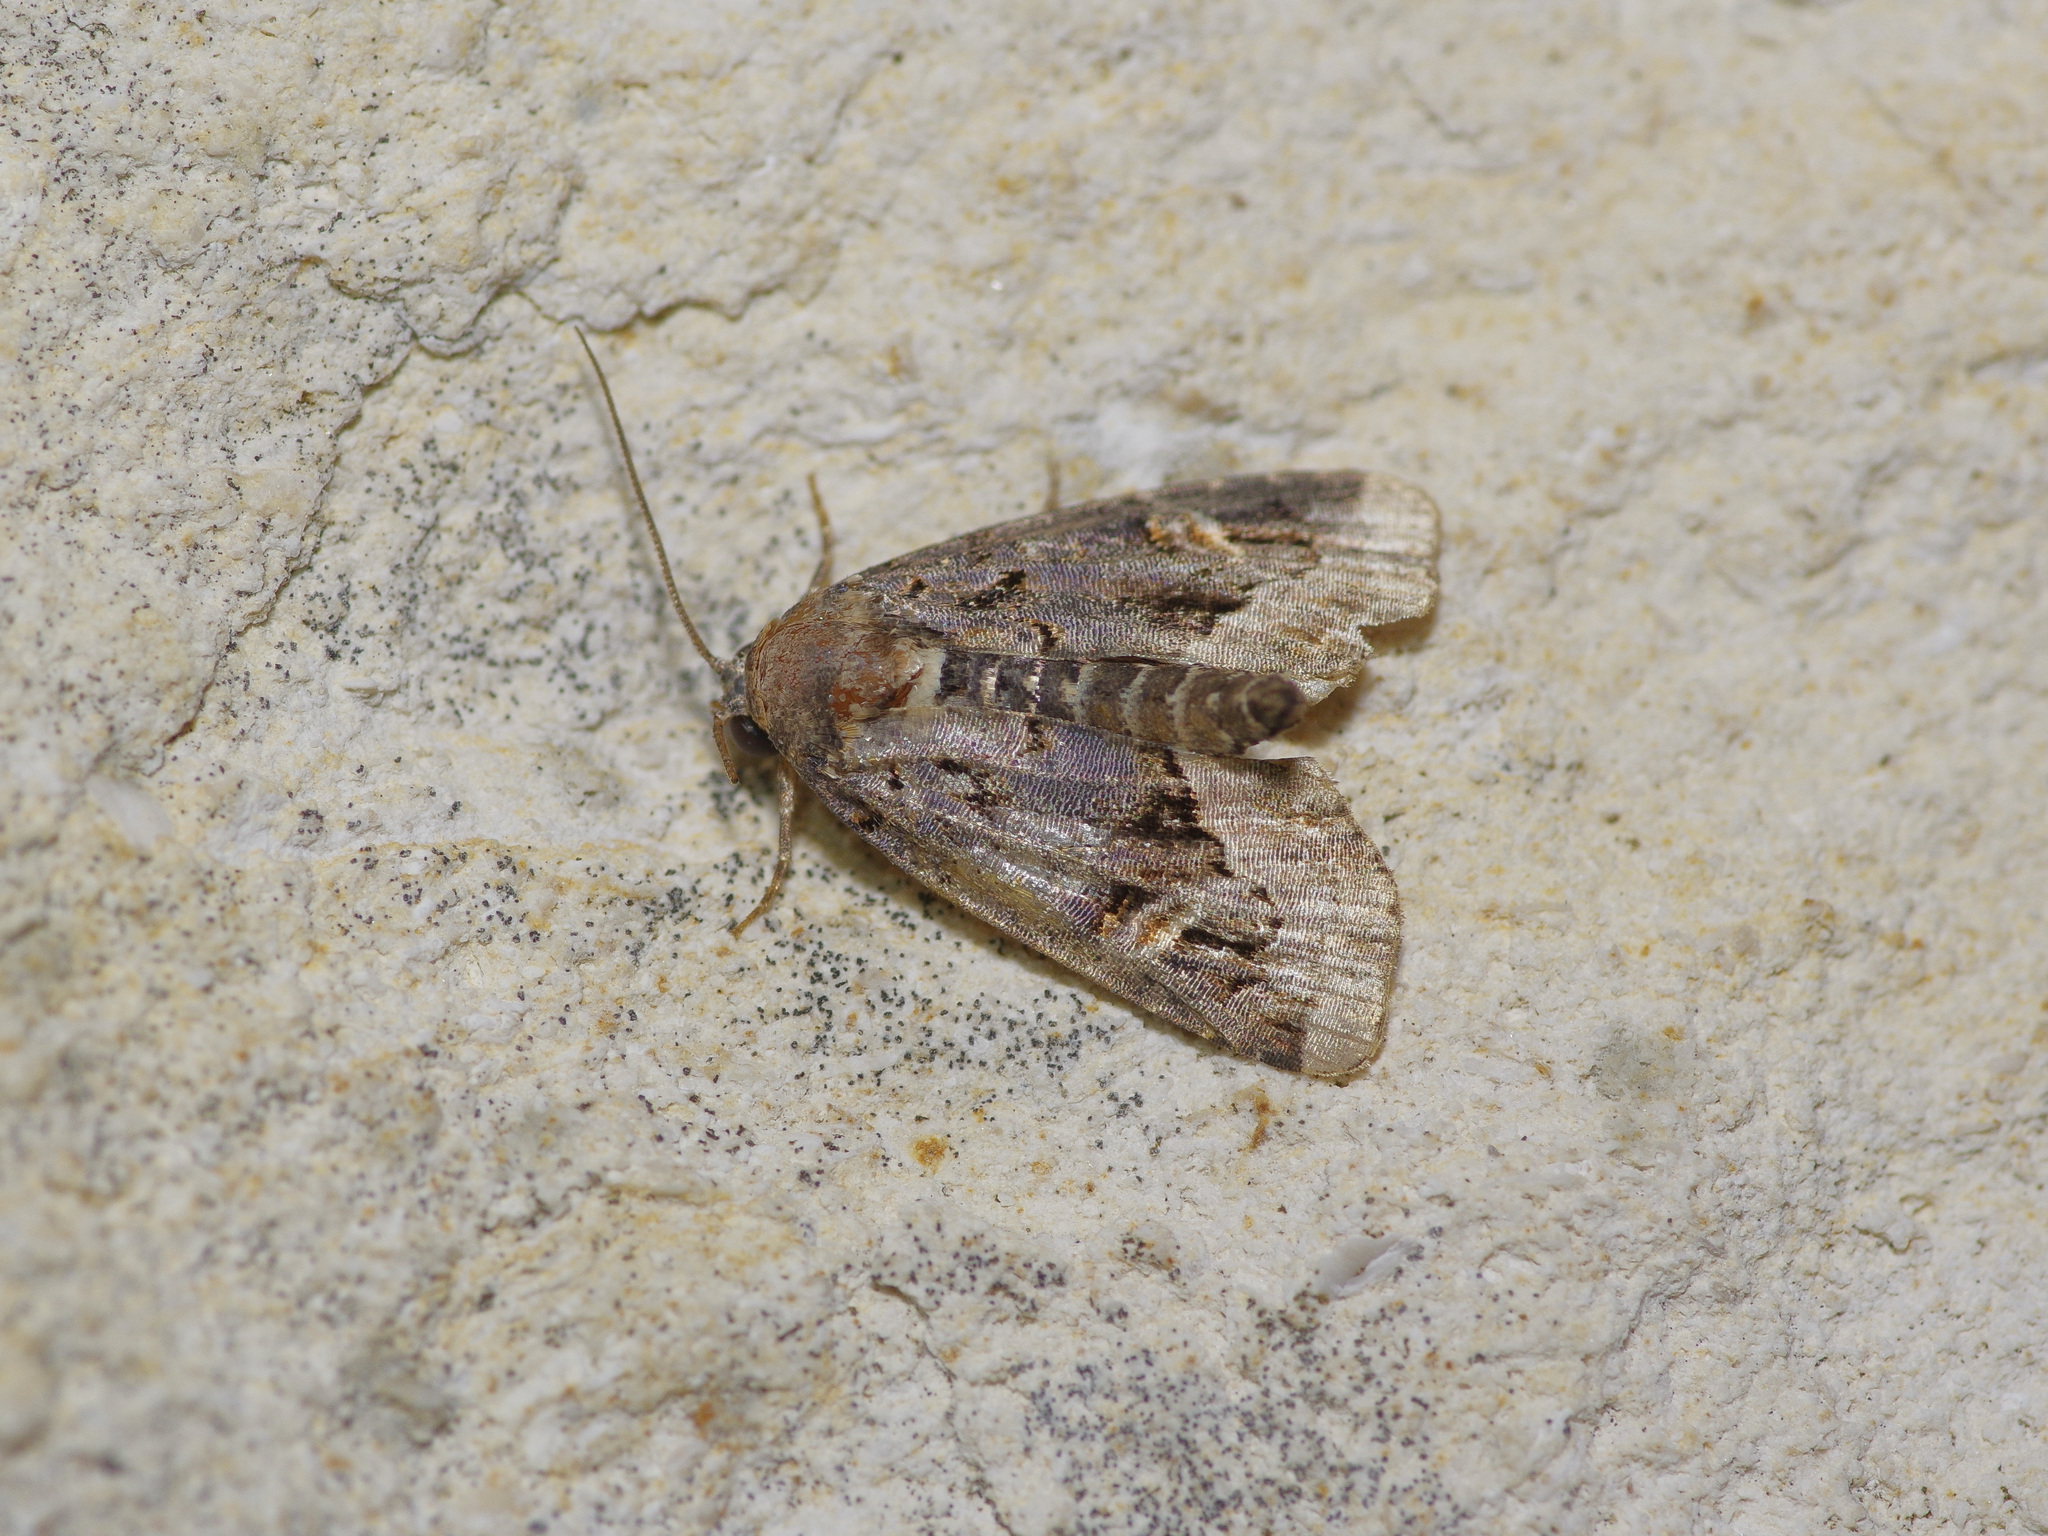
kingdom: Animalia
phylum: Arthropoda
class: Insecta
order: Lepidoptera
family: Noctuidae
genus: Homophoberia
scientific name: Homophoberia apicosa
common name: Black wedge-spot
